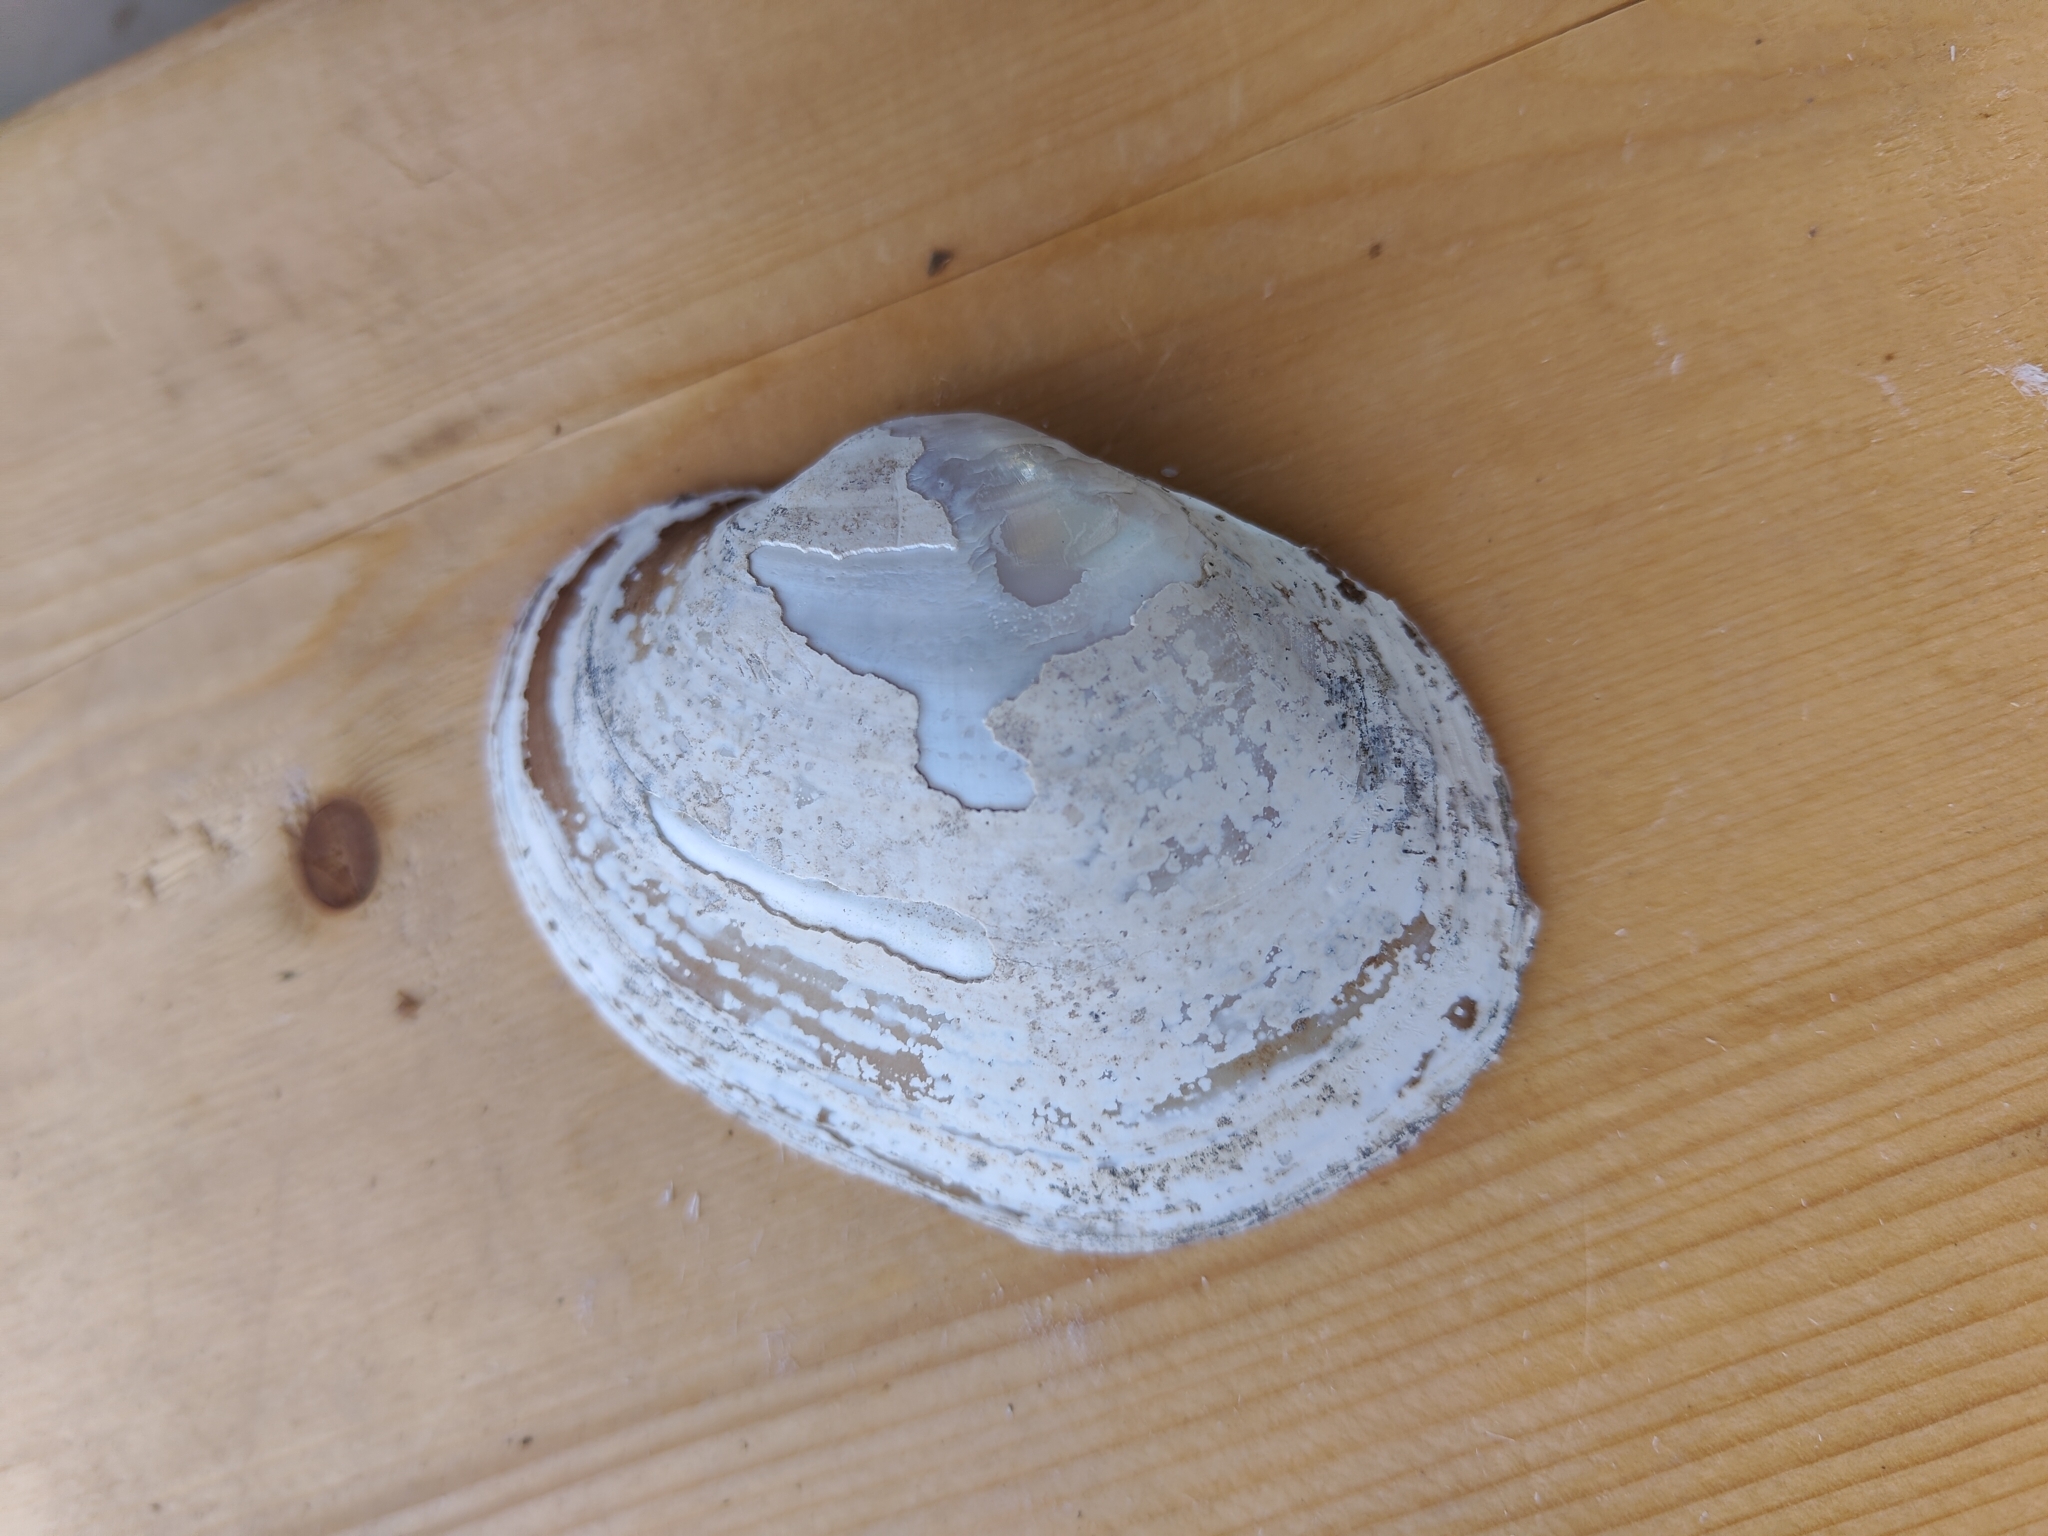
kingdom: Animalia
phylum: Mollusca
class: Bivalvia
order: Unionida
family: Unionidae
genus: Lampsilis
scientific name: Lampsilis cardium
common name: Plain pocketbook
